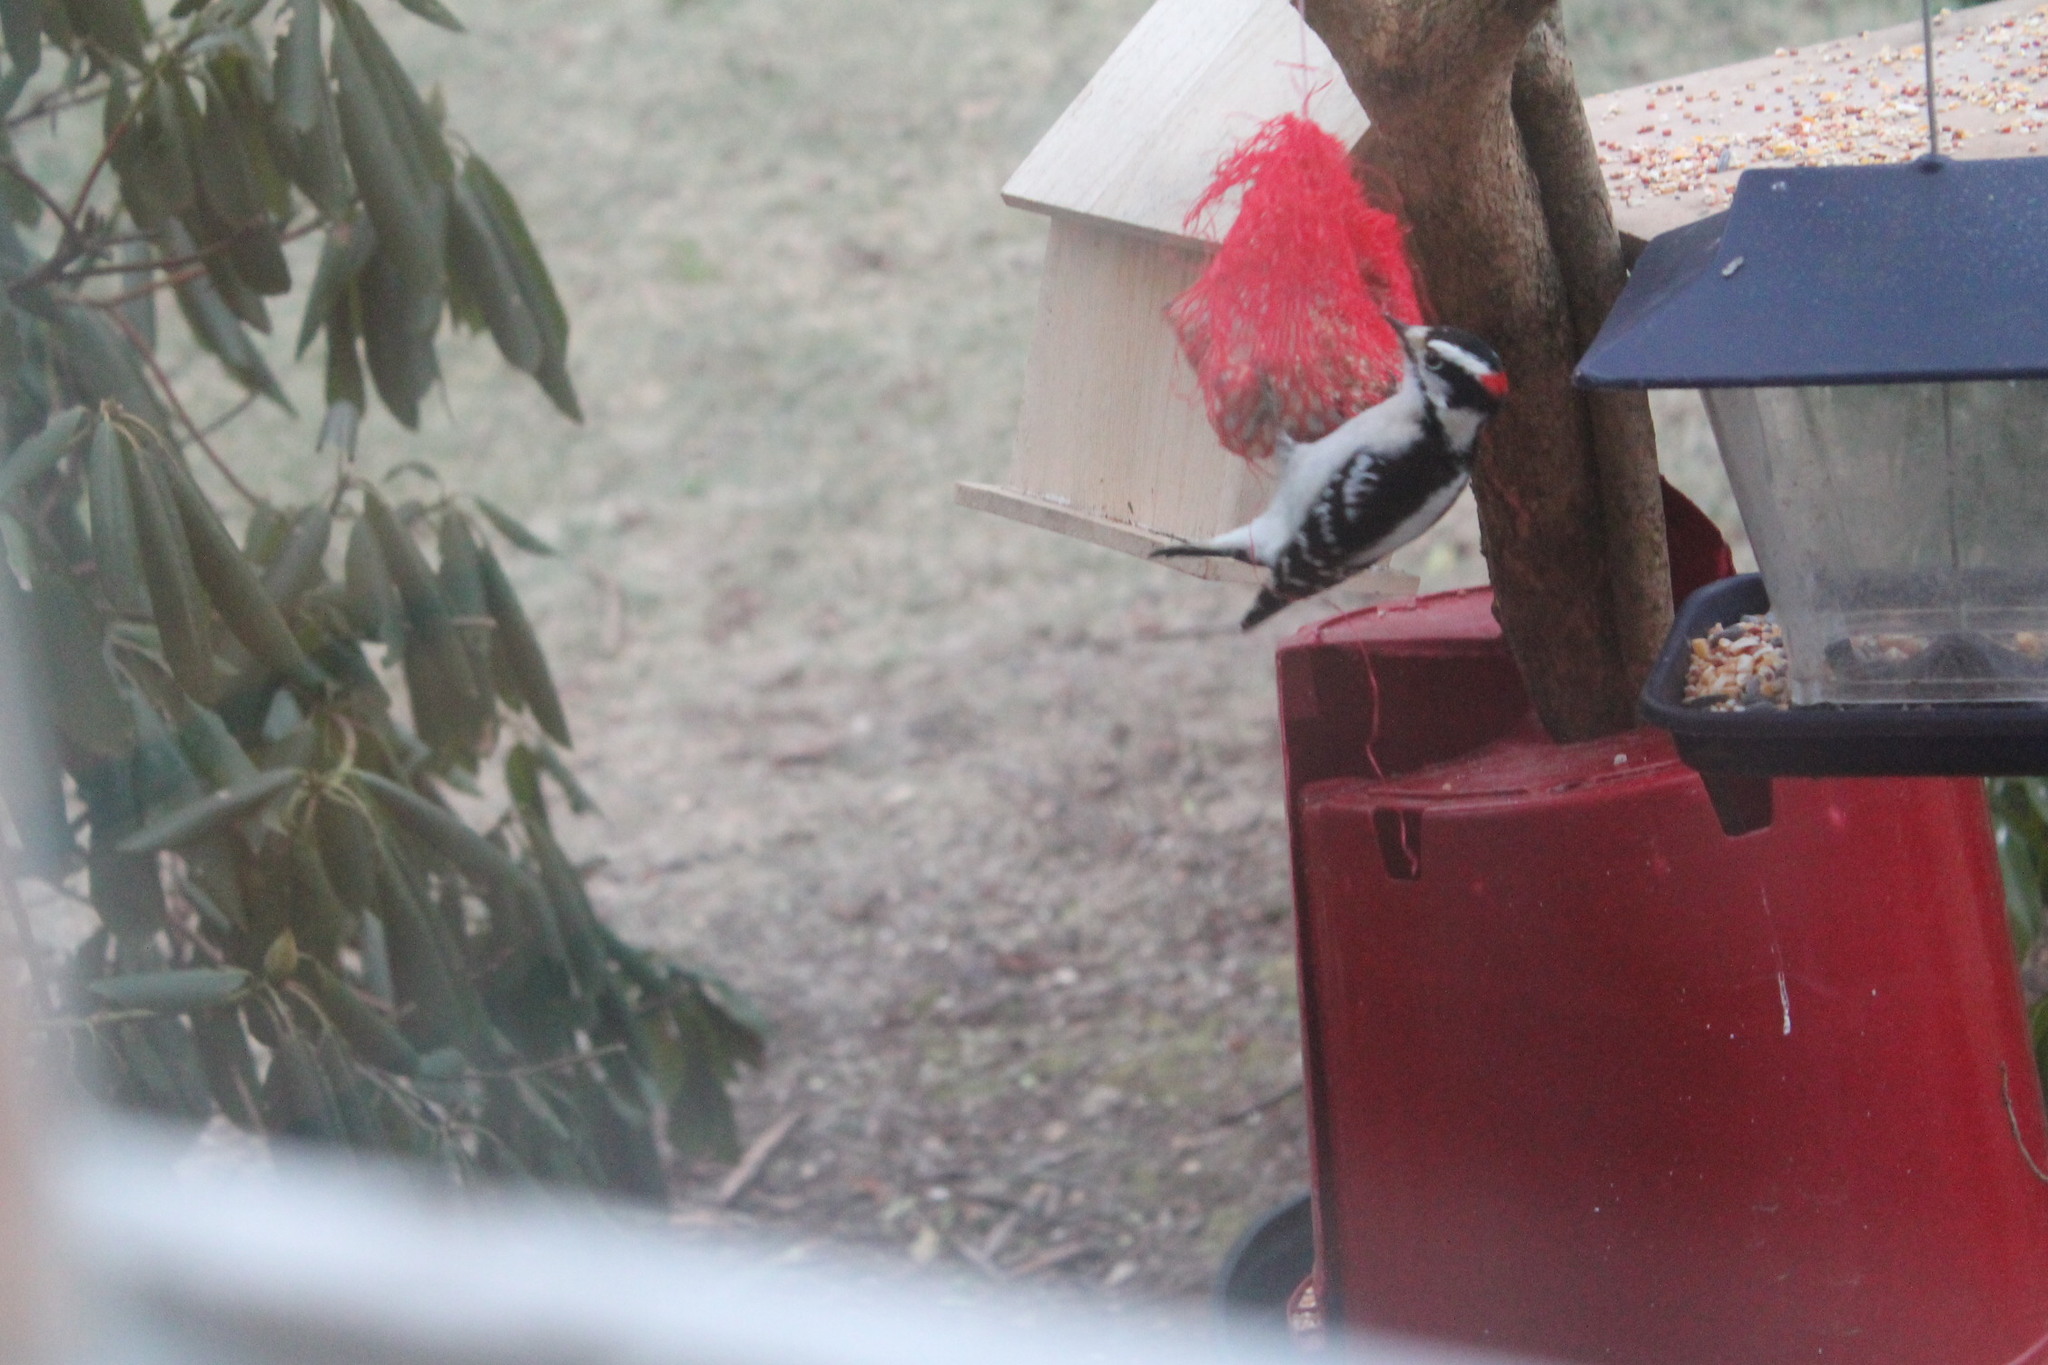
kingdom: Animalia
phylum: Chordata
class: Aves
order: Piciformes
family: Picidae
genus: Dryobates
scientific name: Dryobates pubescens
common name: Downy woodpecker
